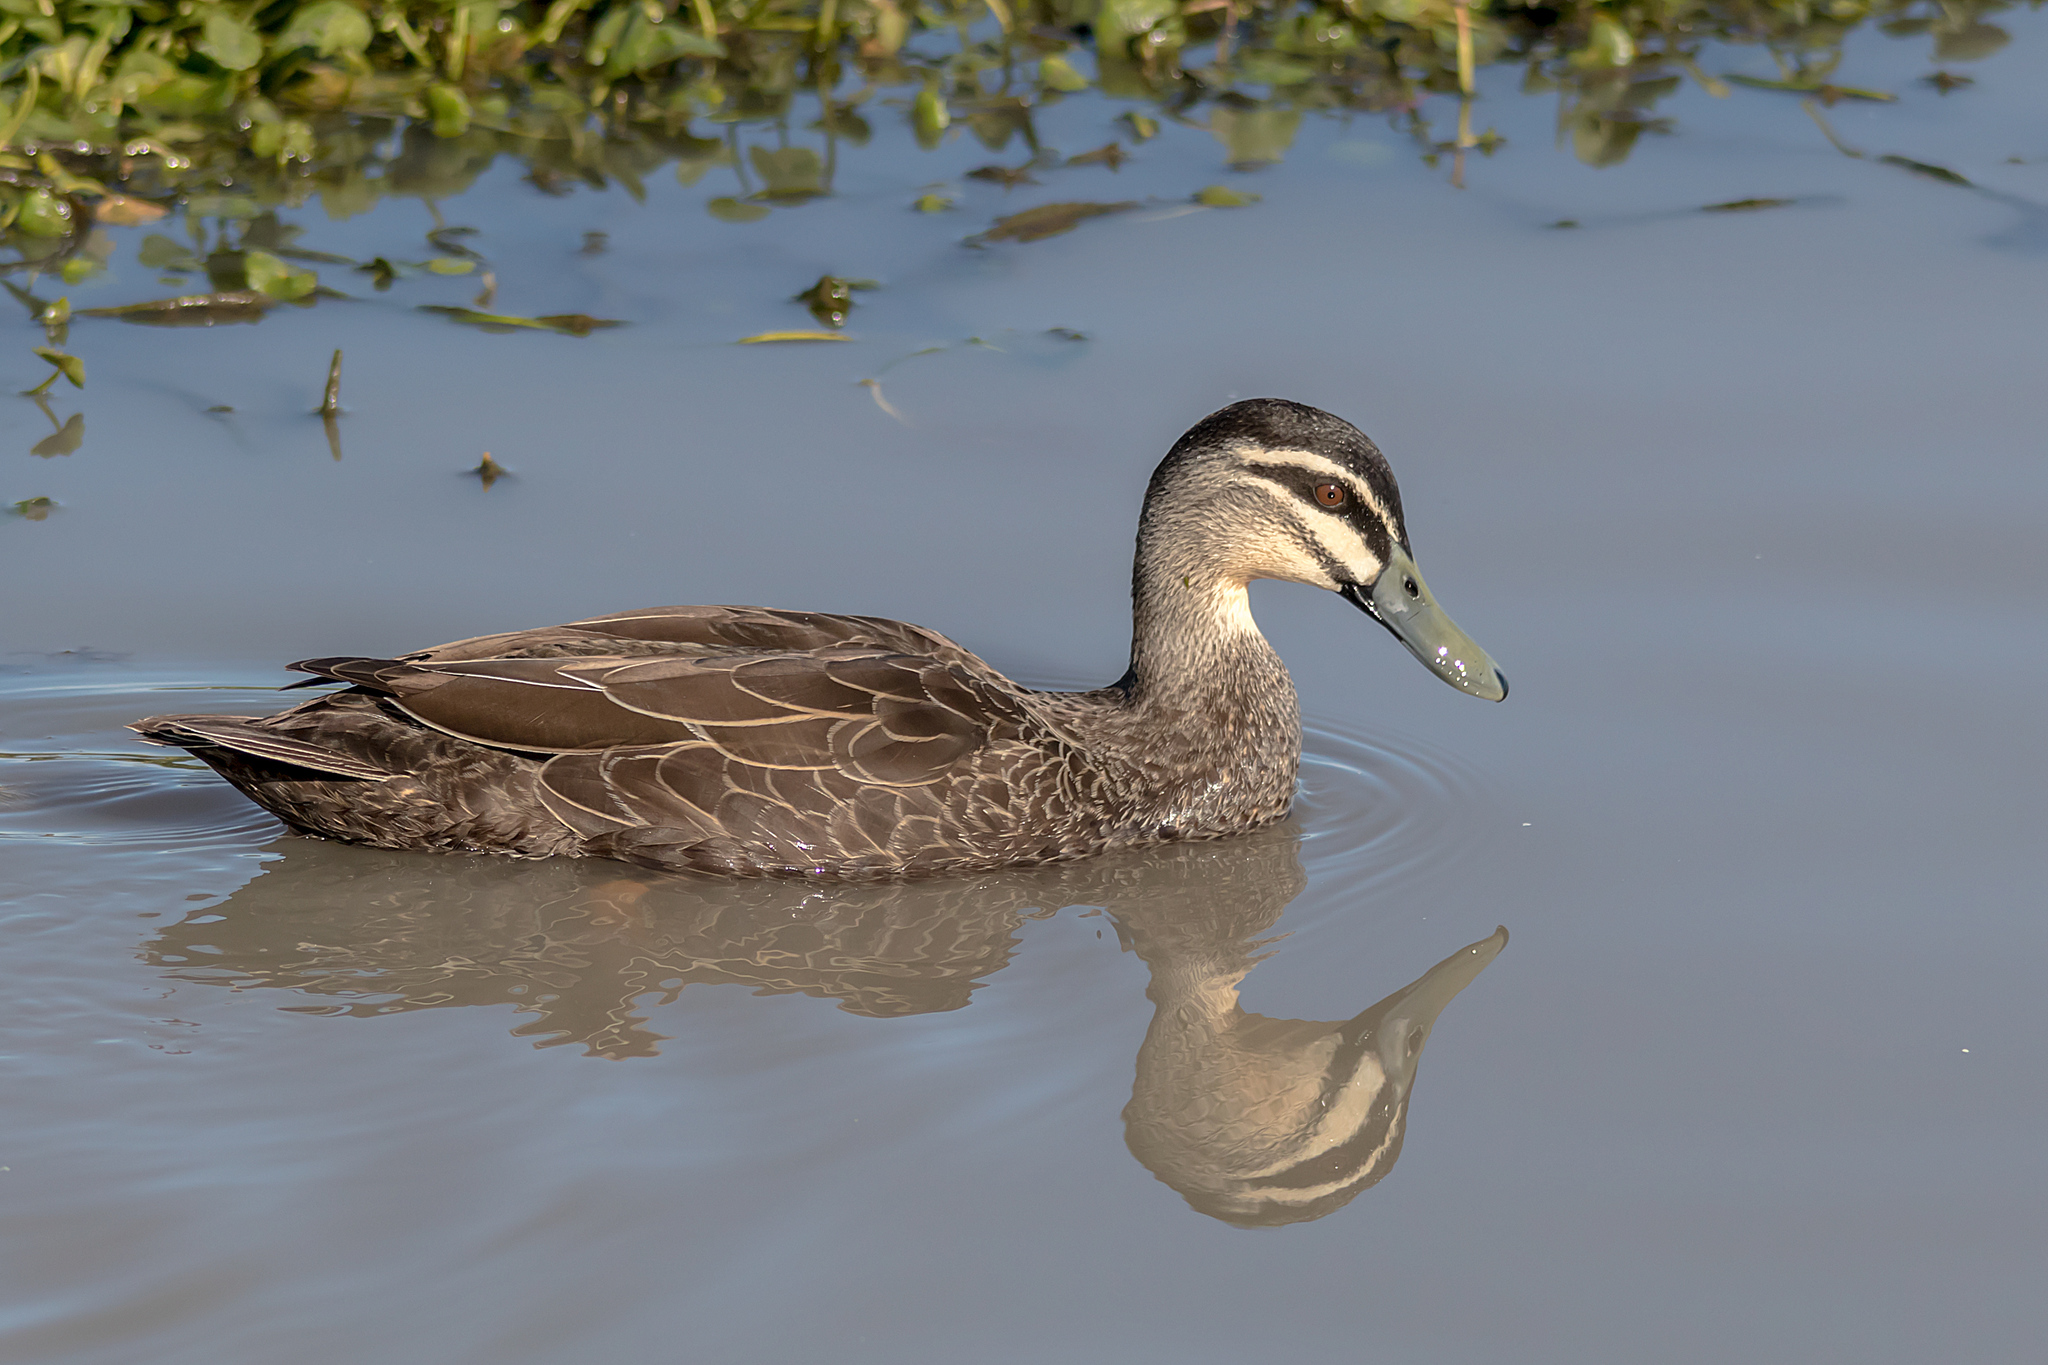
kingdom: Animalia
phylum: Chordata
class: Aves
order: Anseriformes
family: Anatidae
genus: Anas
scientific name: Anas
